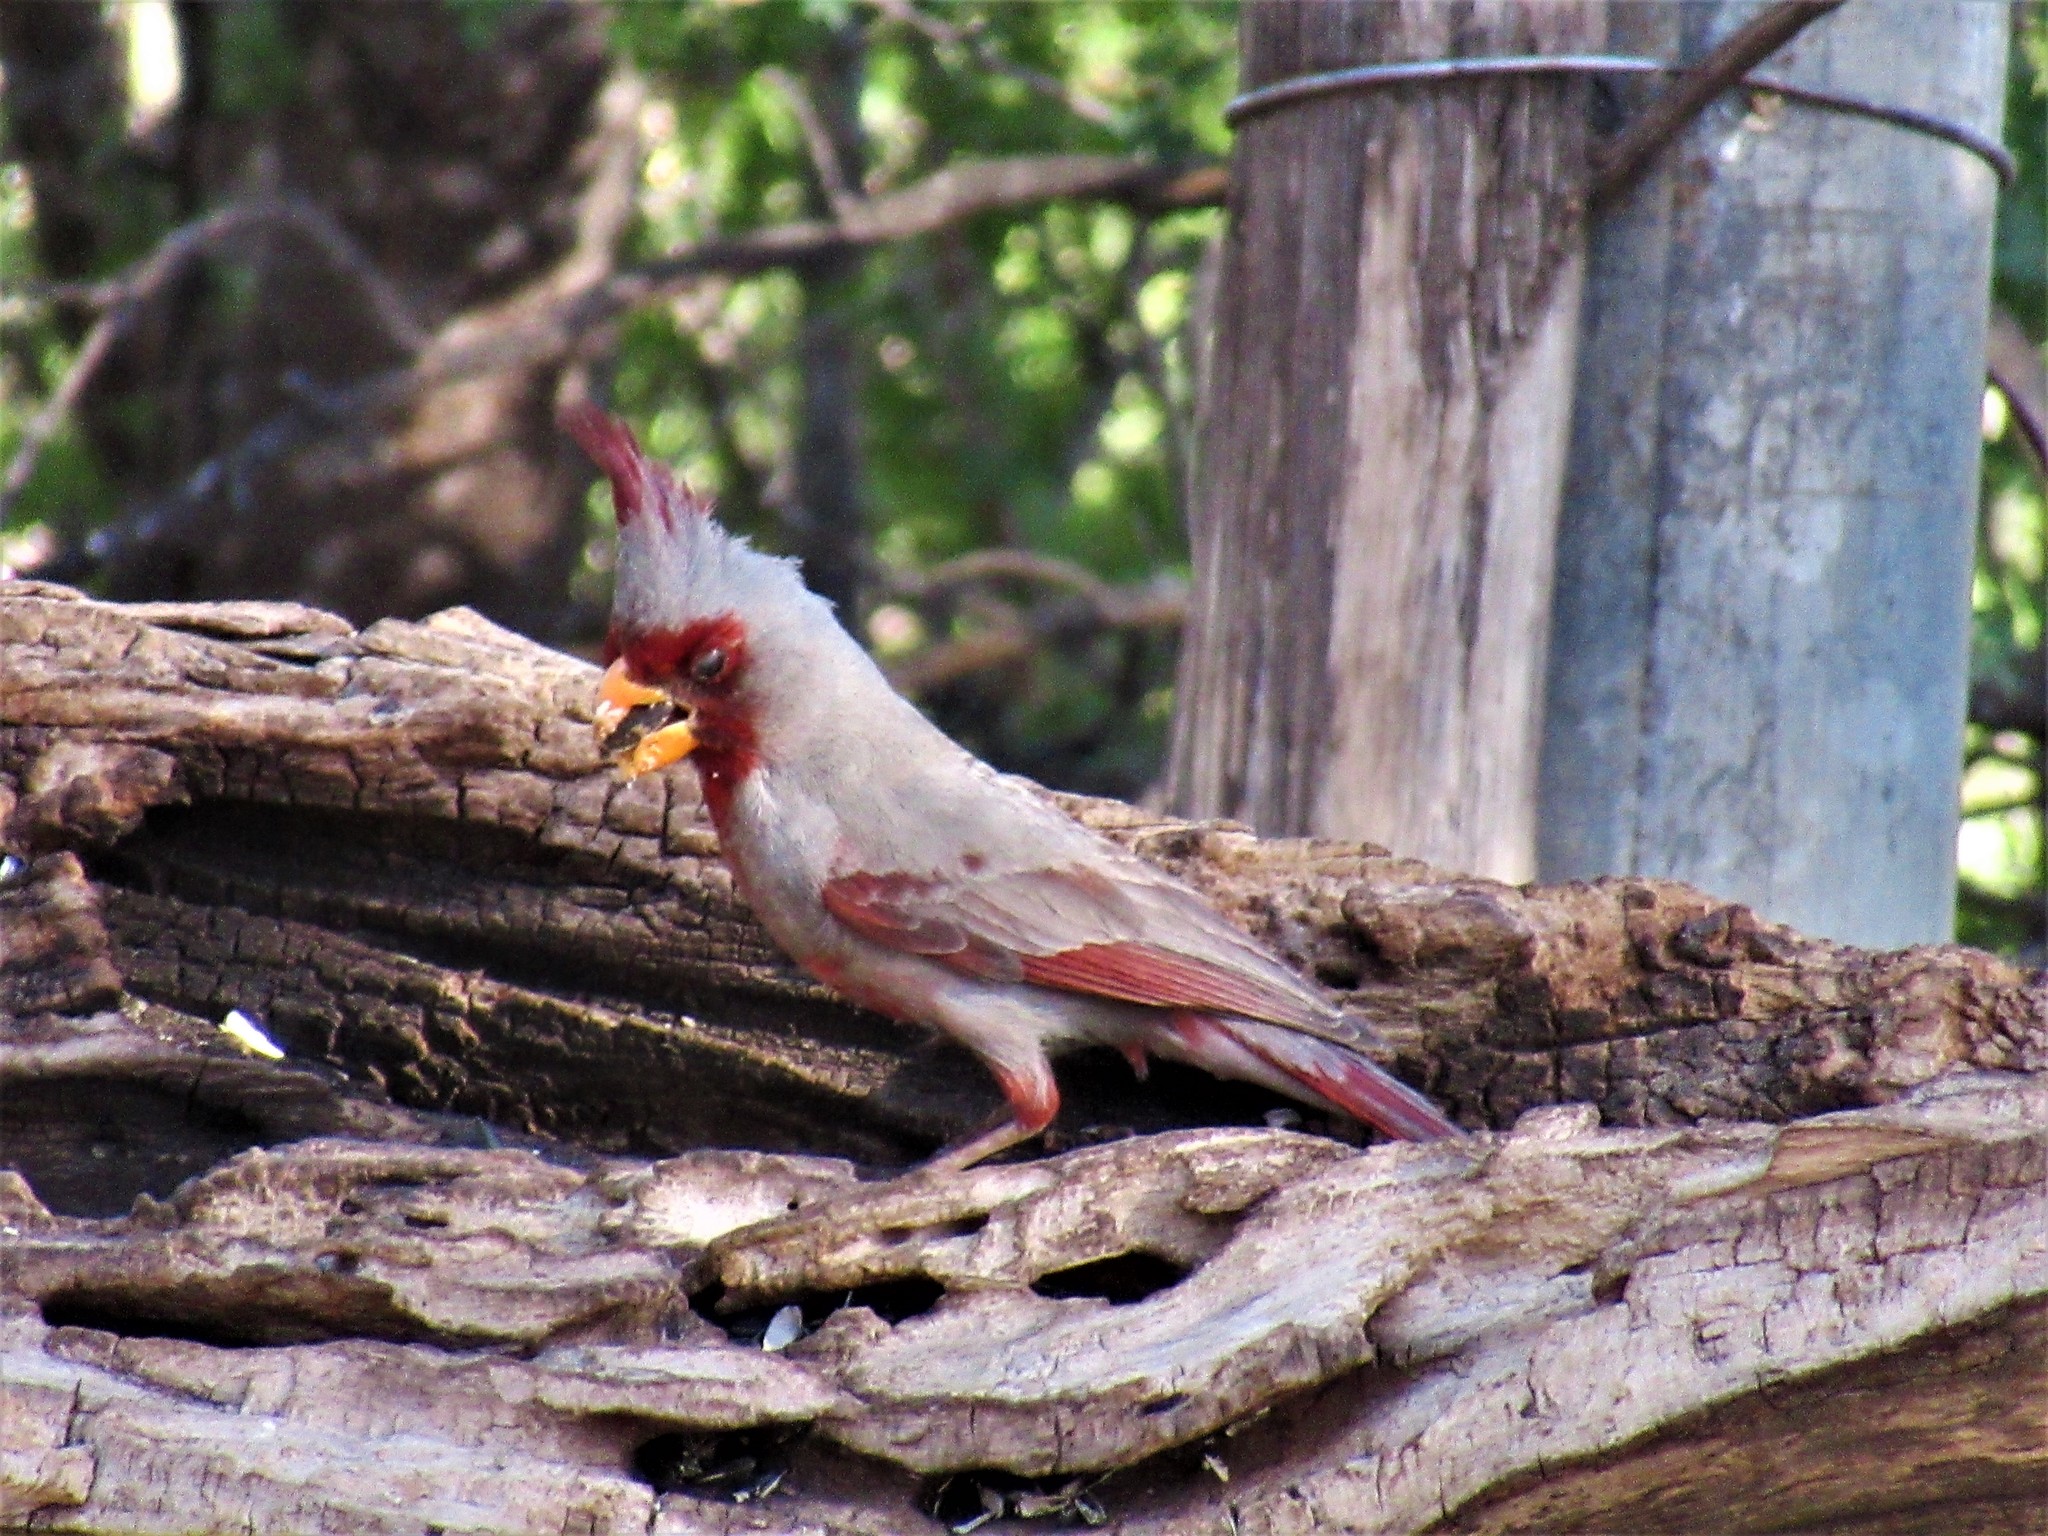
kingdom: Animalia
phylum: Chordata
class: Aves
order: Passeriformes
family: Cardinalidae
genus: Cardinalis
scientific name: Cardinalis sinuatus
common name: Pyrrhuloxia
